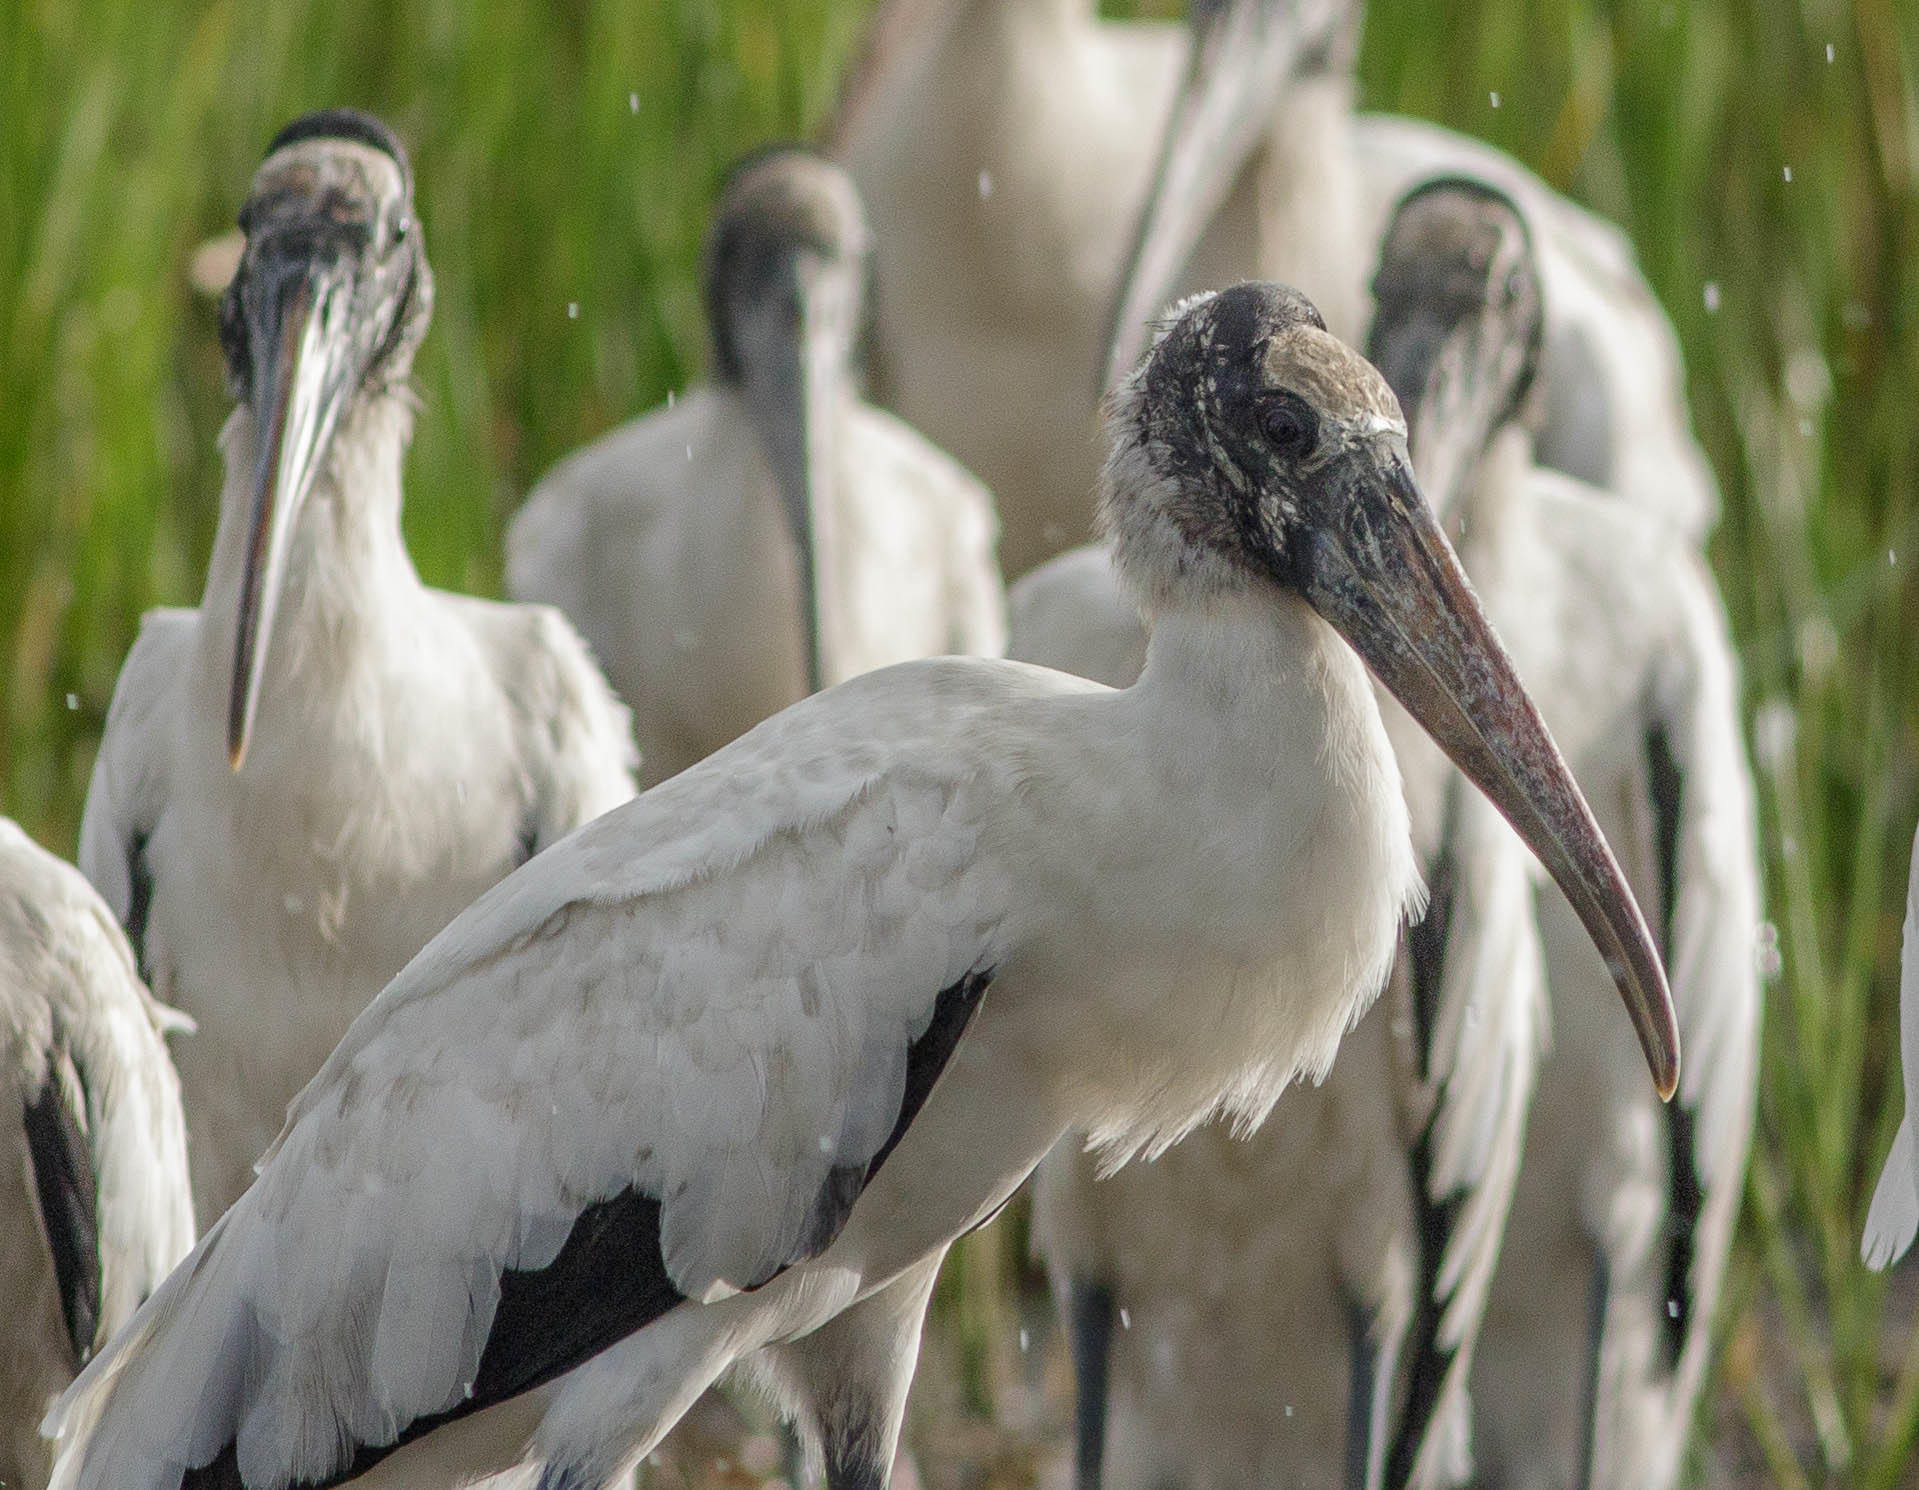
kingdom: Animalia
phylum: Chordata
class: Aves
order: Ciconiiformes
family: Ciconiidae
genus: Mycteria
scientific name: Mycteria americana
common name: Wood stork
